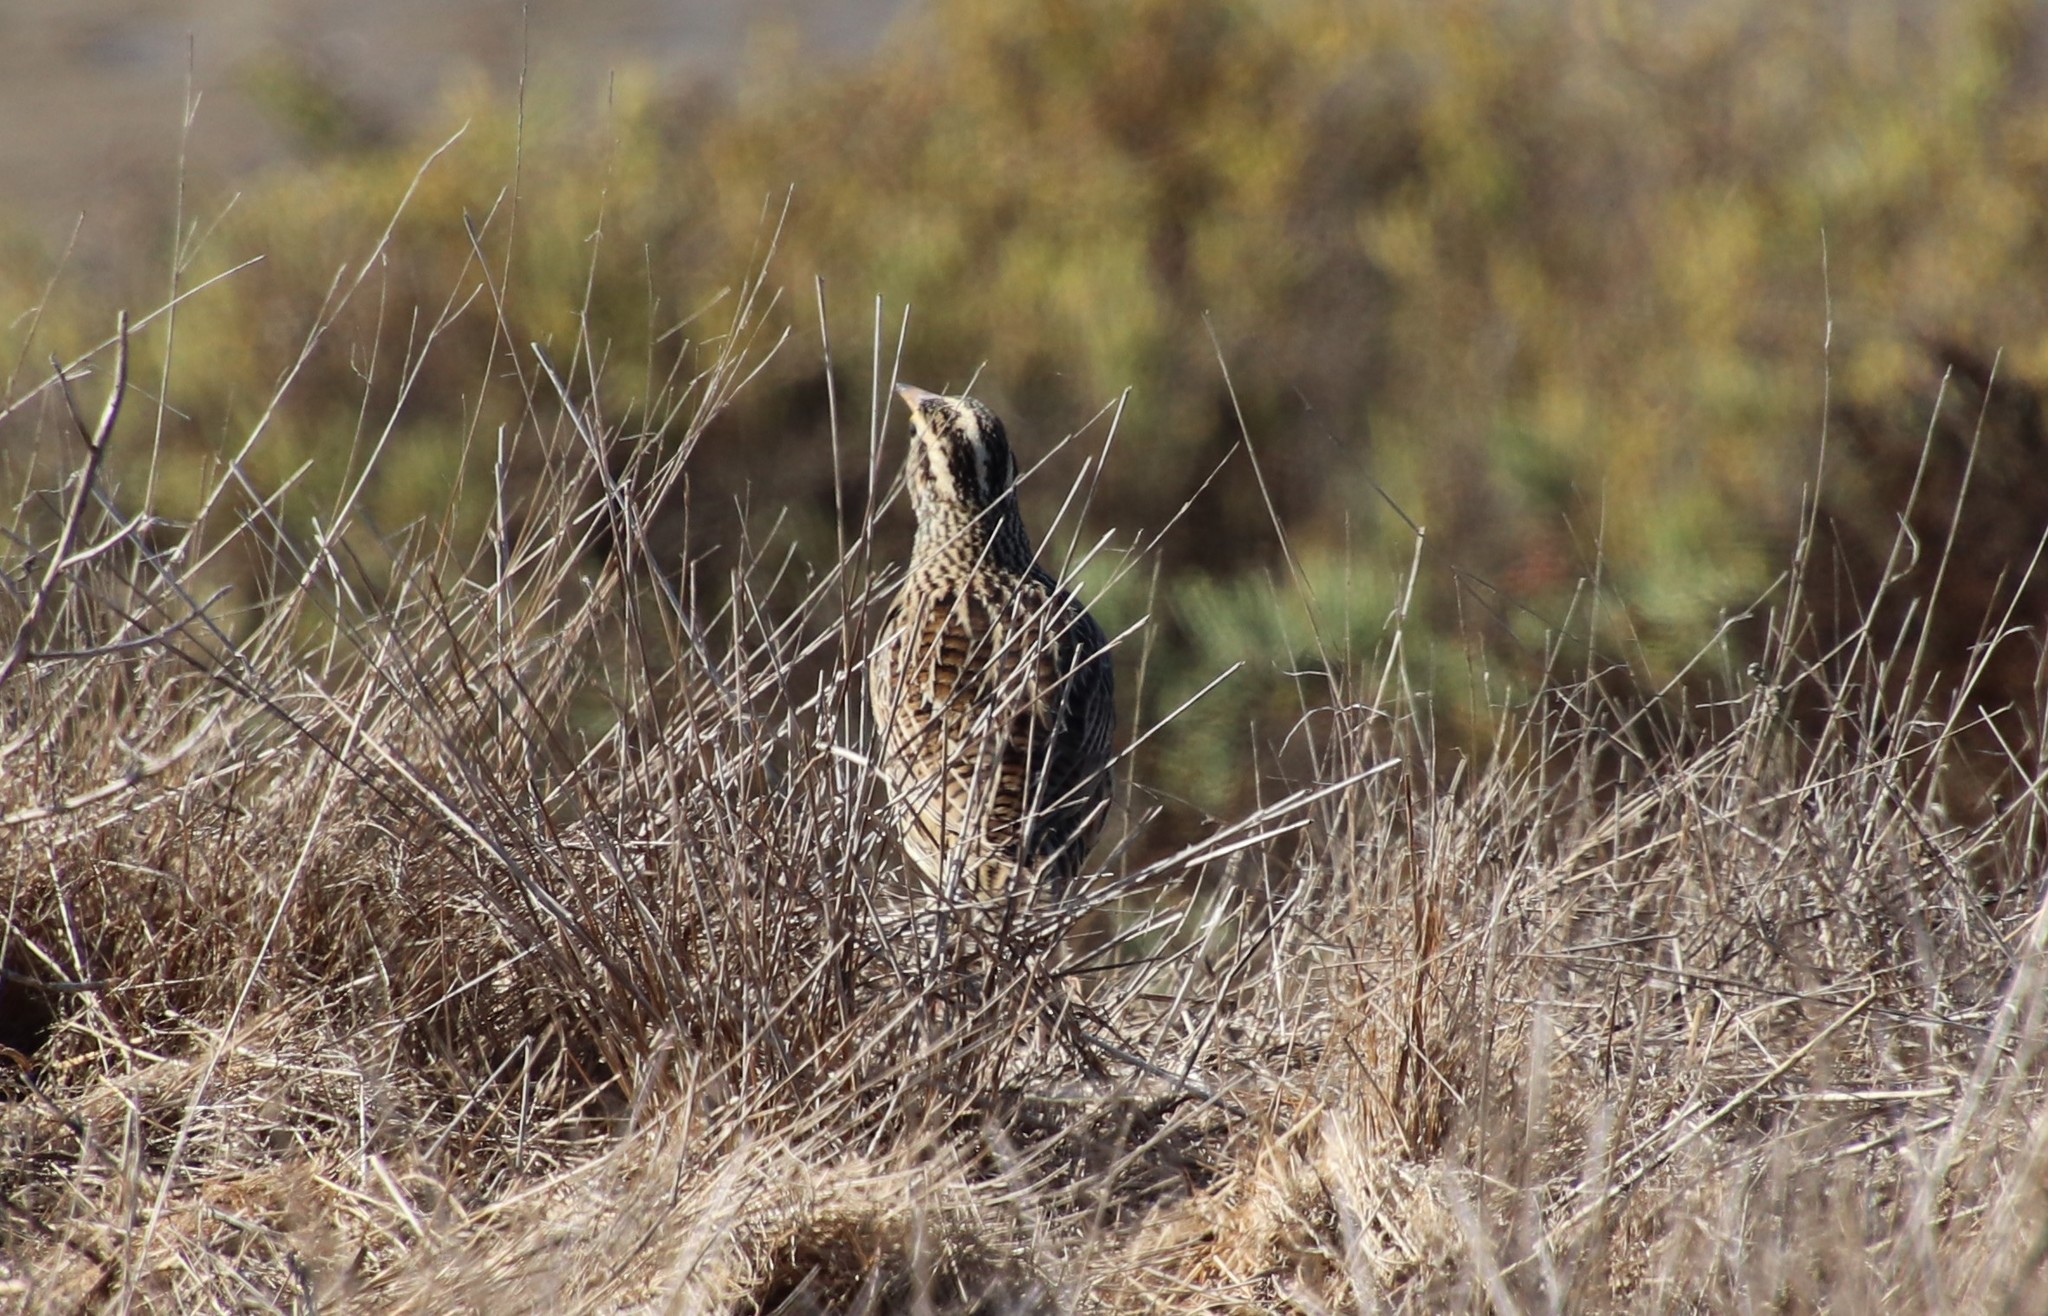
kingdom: Animalia
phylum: Chordata
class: Aves
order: Passeriformes
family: Icteridae
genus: Sturnella
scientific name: Sturnella neglecta
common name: Western meadowlark
